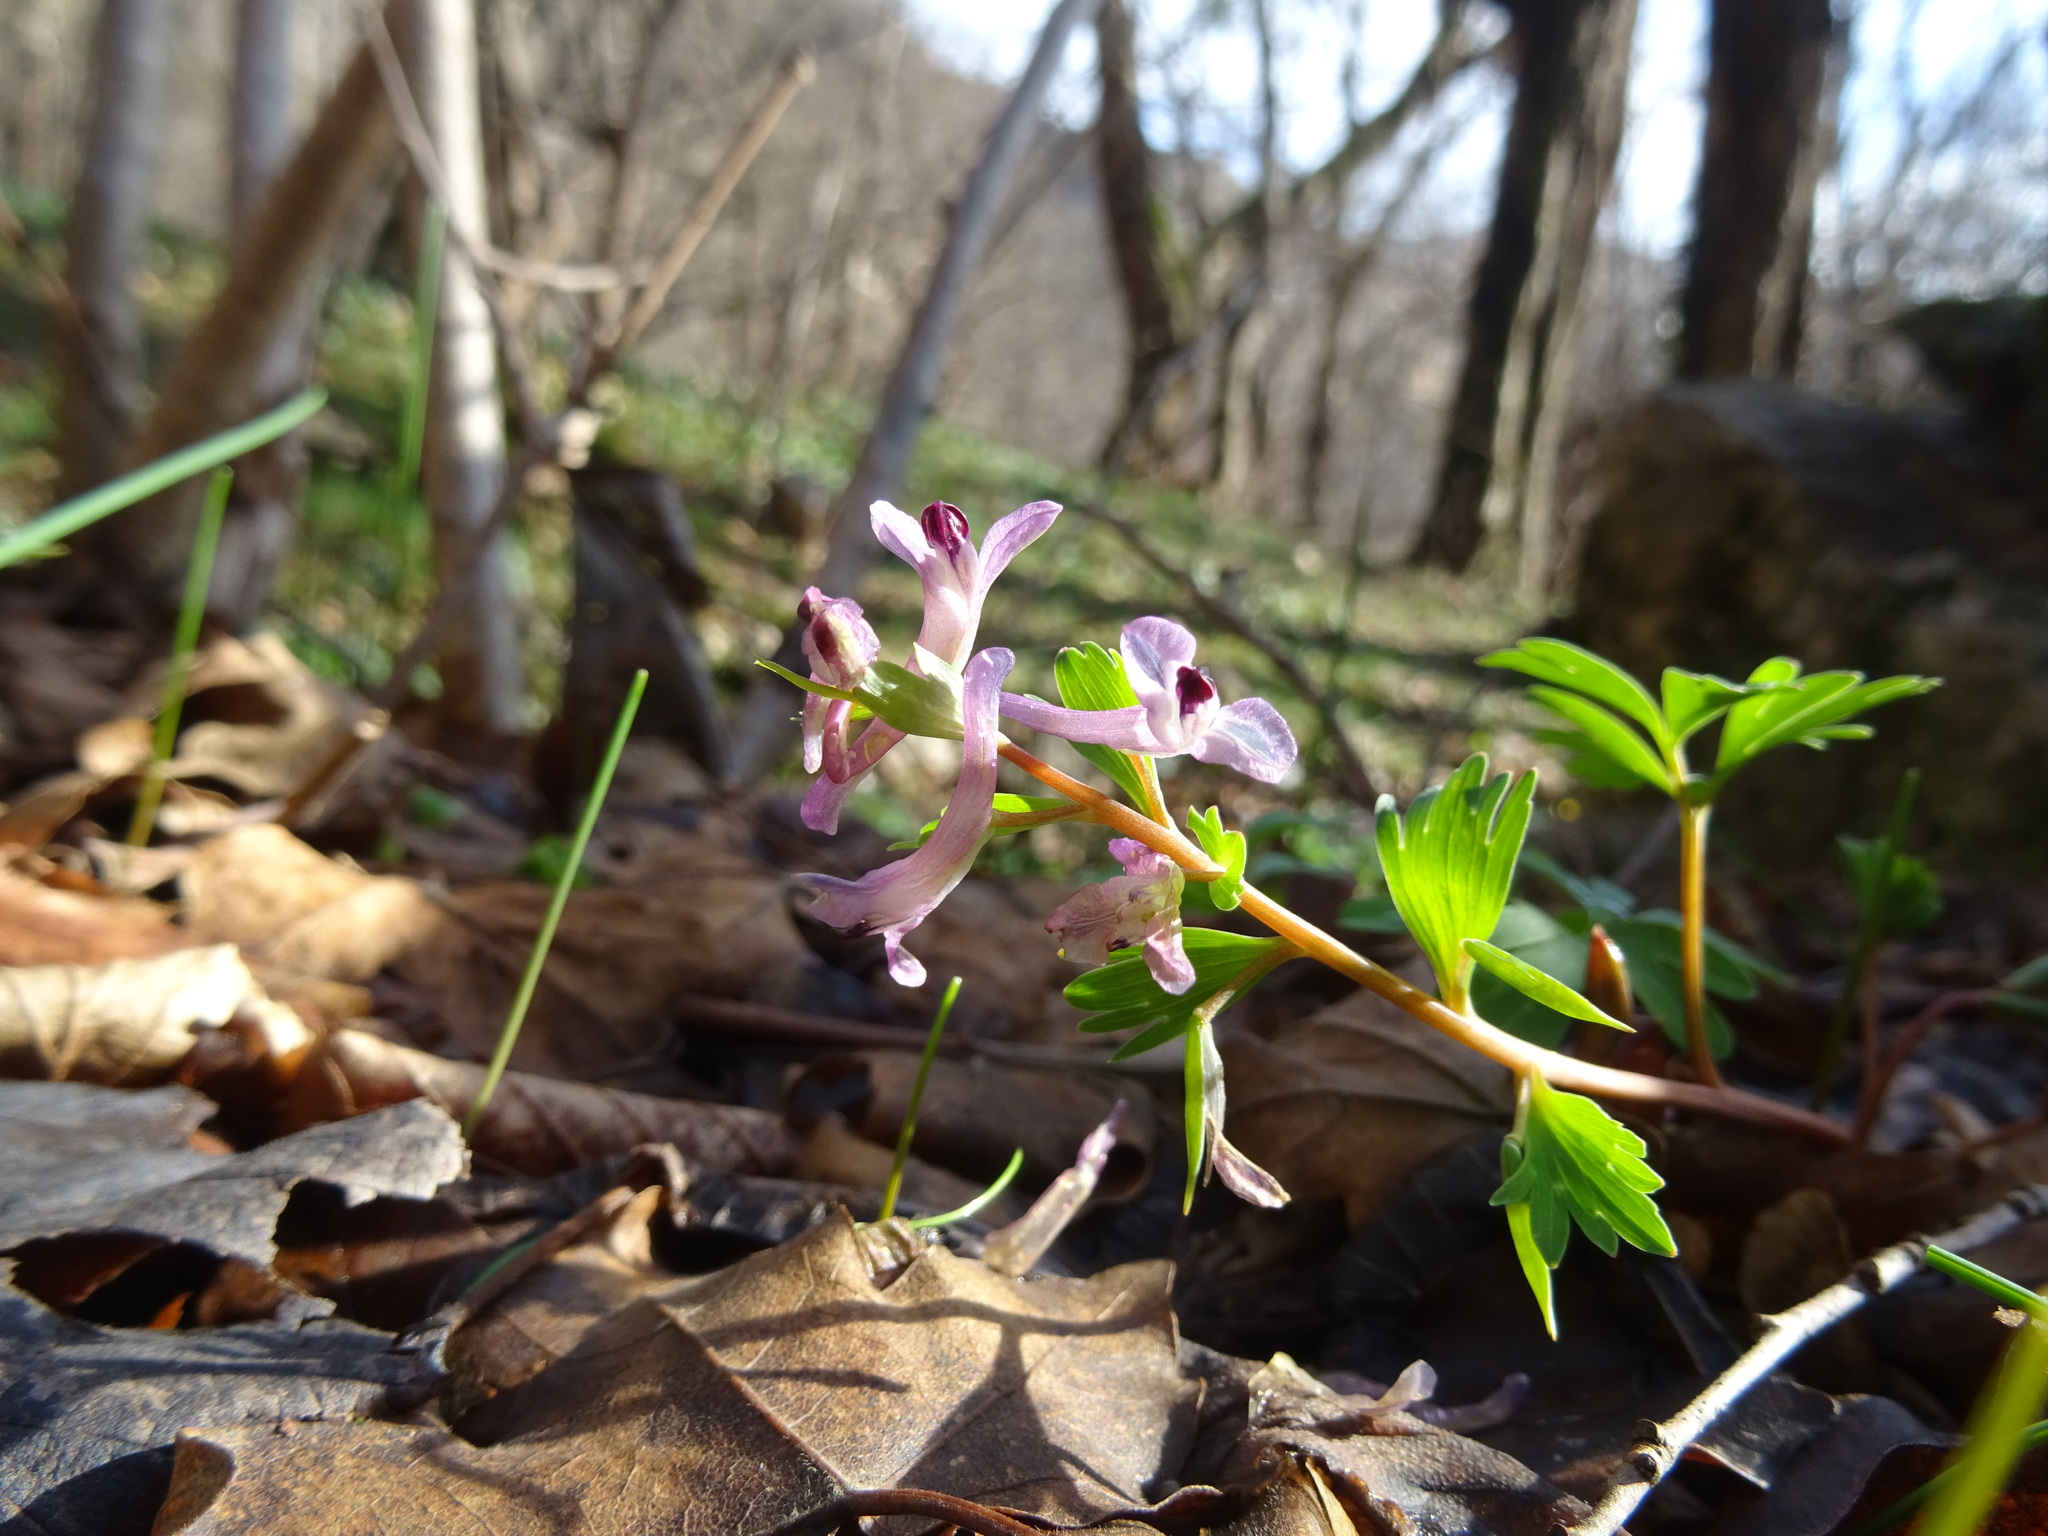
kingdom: Plantae
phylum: Tracheophyta
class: Magnoliopsida
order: Ranunculales
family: Papaveraceae
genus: Corydalis
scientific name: Corydalis paczoskii
